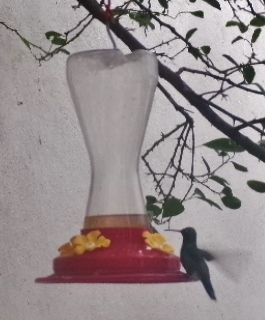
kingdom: Animalia
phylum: Chordata
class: Aves
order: Apodiformes
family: Trochilidae
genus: Cynanthus
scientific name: Cynanthus latirostris
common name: Broad-billed hummingbird
